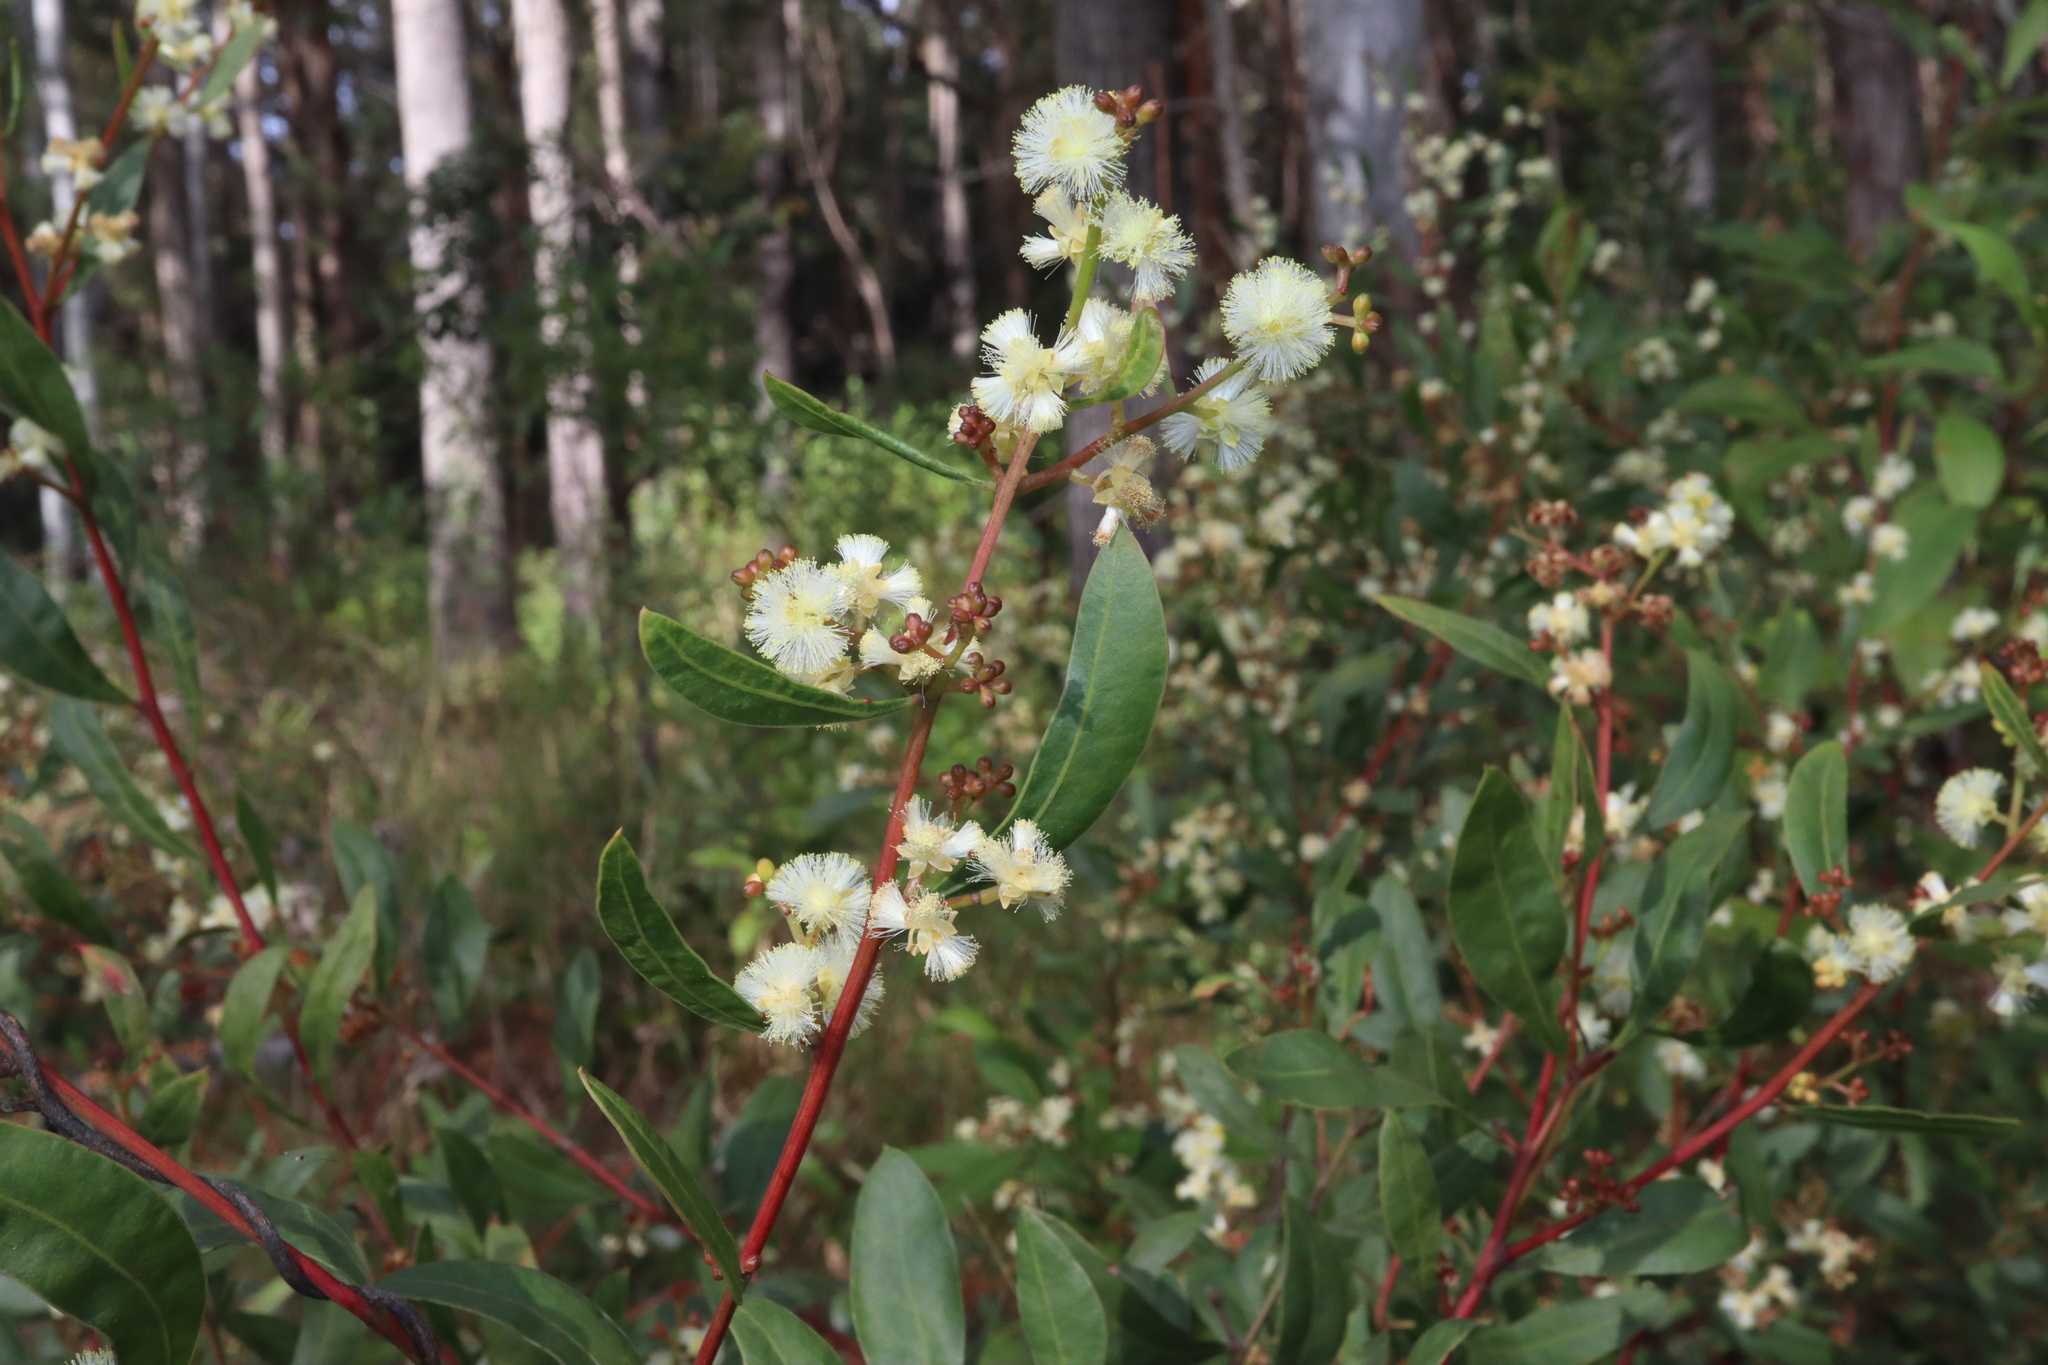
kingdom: Plantae
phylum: Tracheophyta
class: Magnoliopsida
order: Fabales
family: Fabaceae
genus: Acacia
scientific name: Acacia myrtifolia
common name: Myrtle wattle
